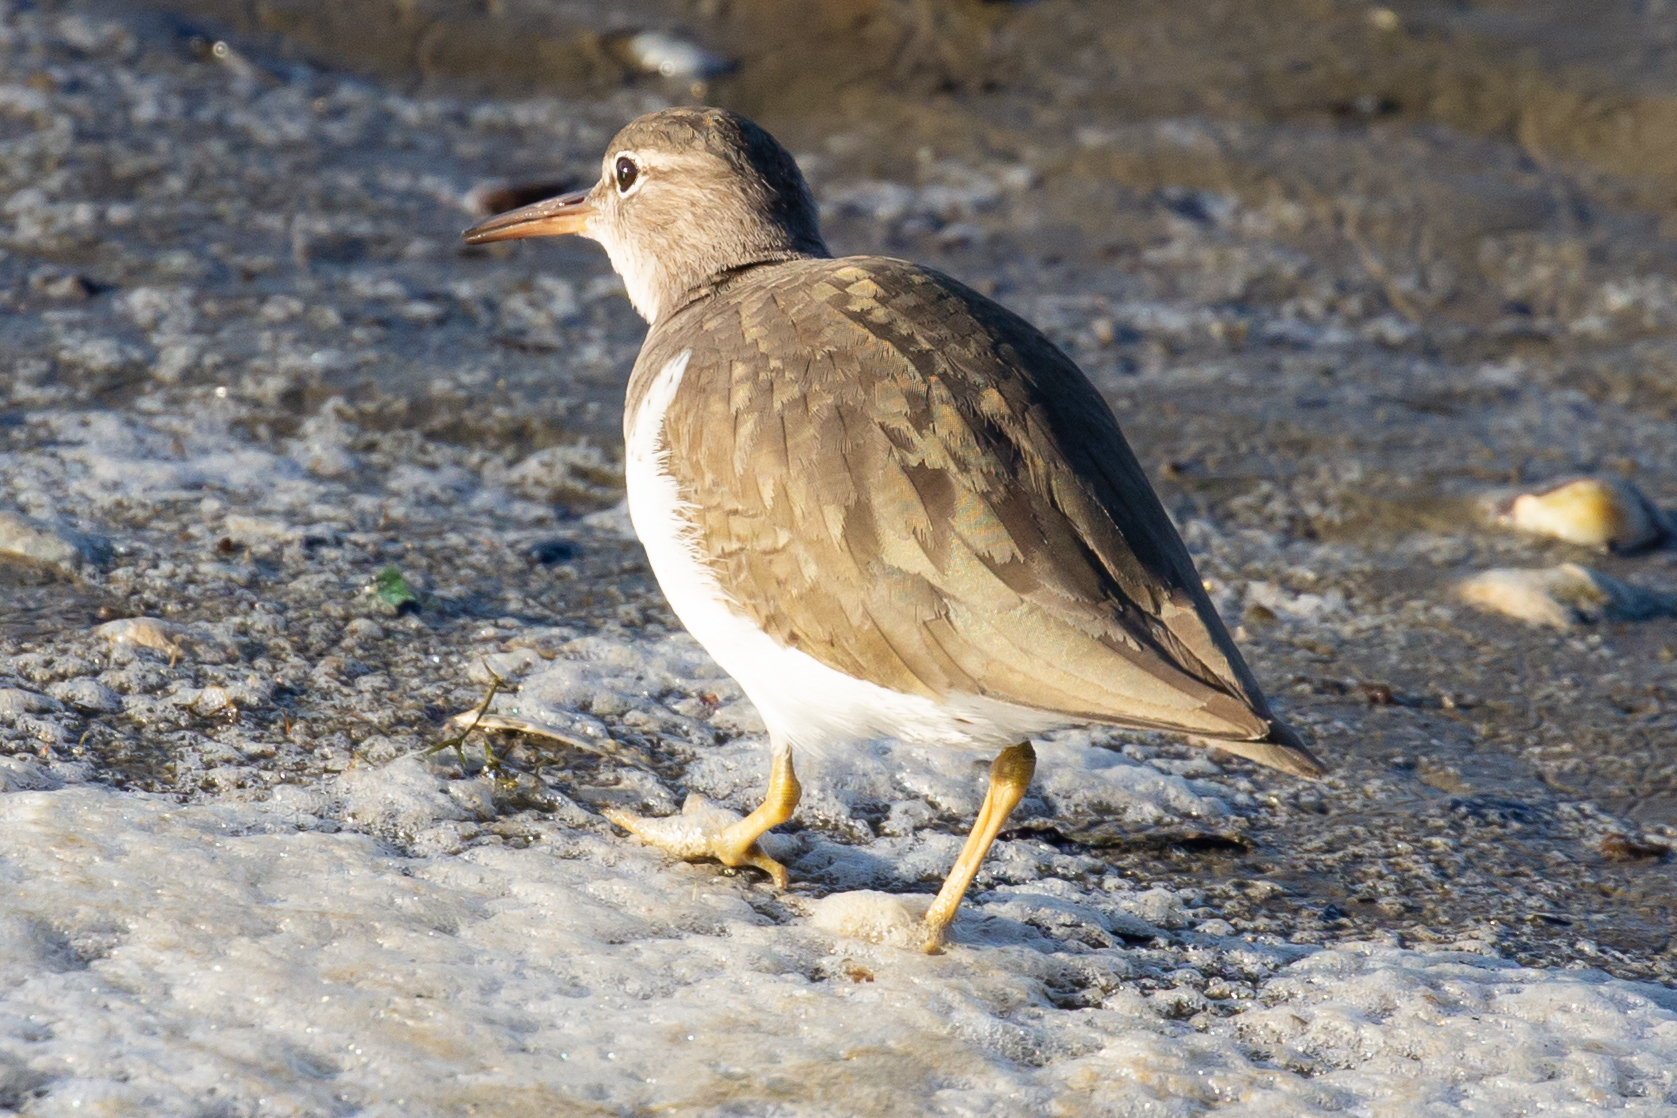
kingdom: Animalia
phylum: Chordata
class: Aves
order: Charadriiformes
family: Scolopacidae
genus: Actitis
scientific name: Actitis macularius
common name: Spotted sandpiper
